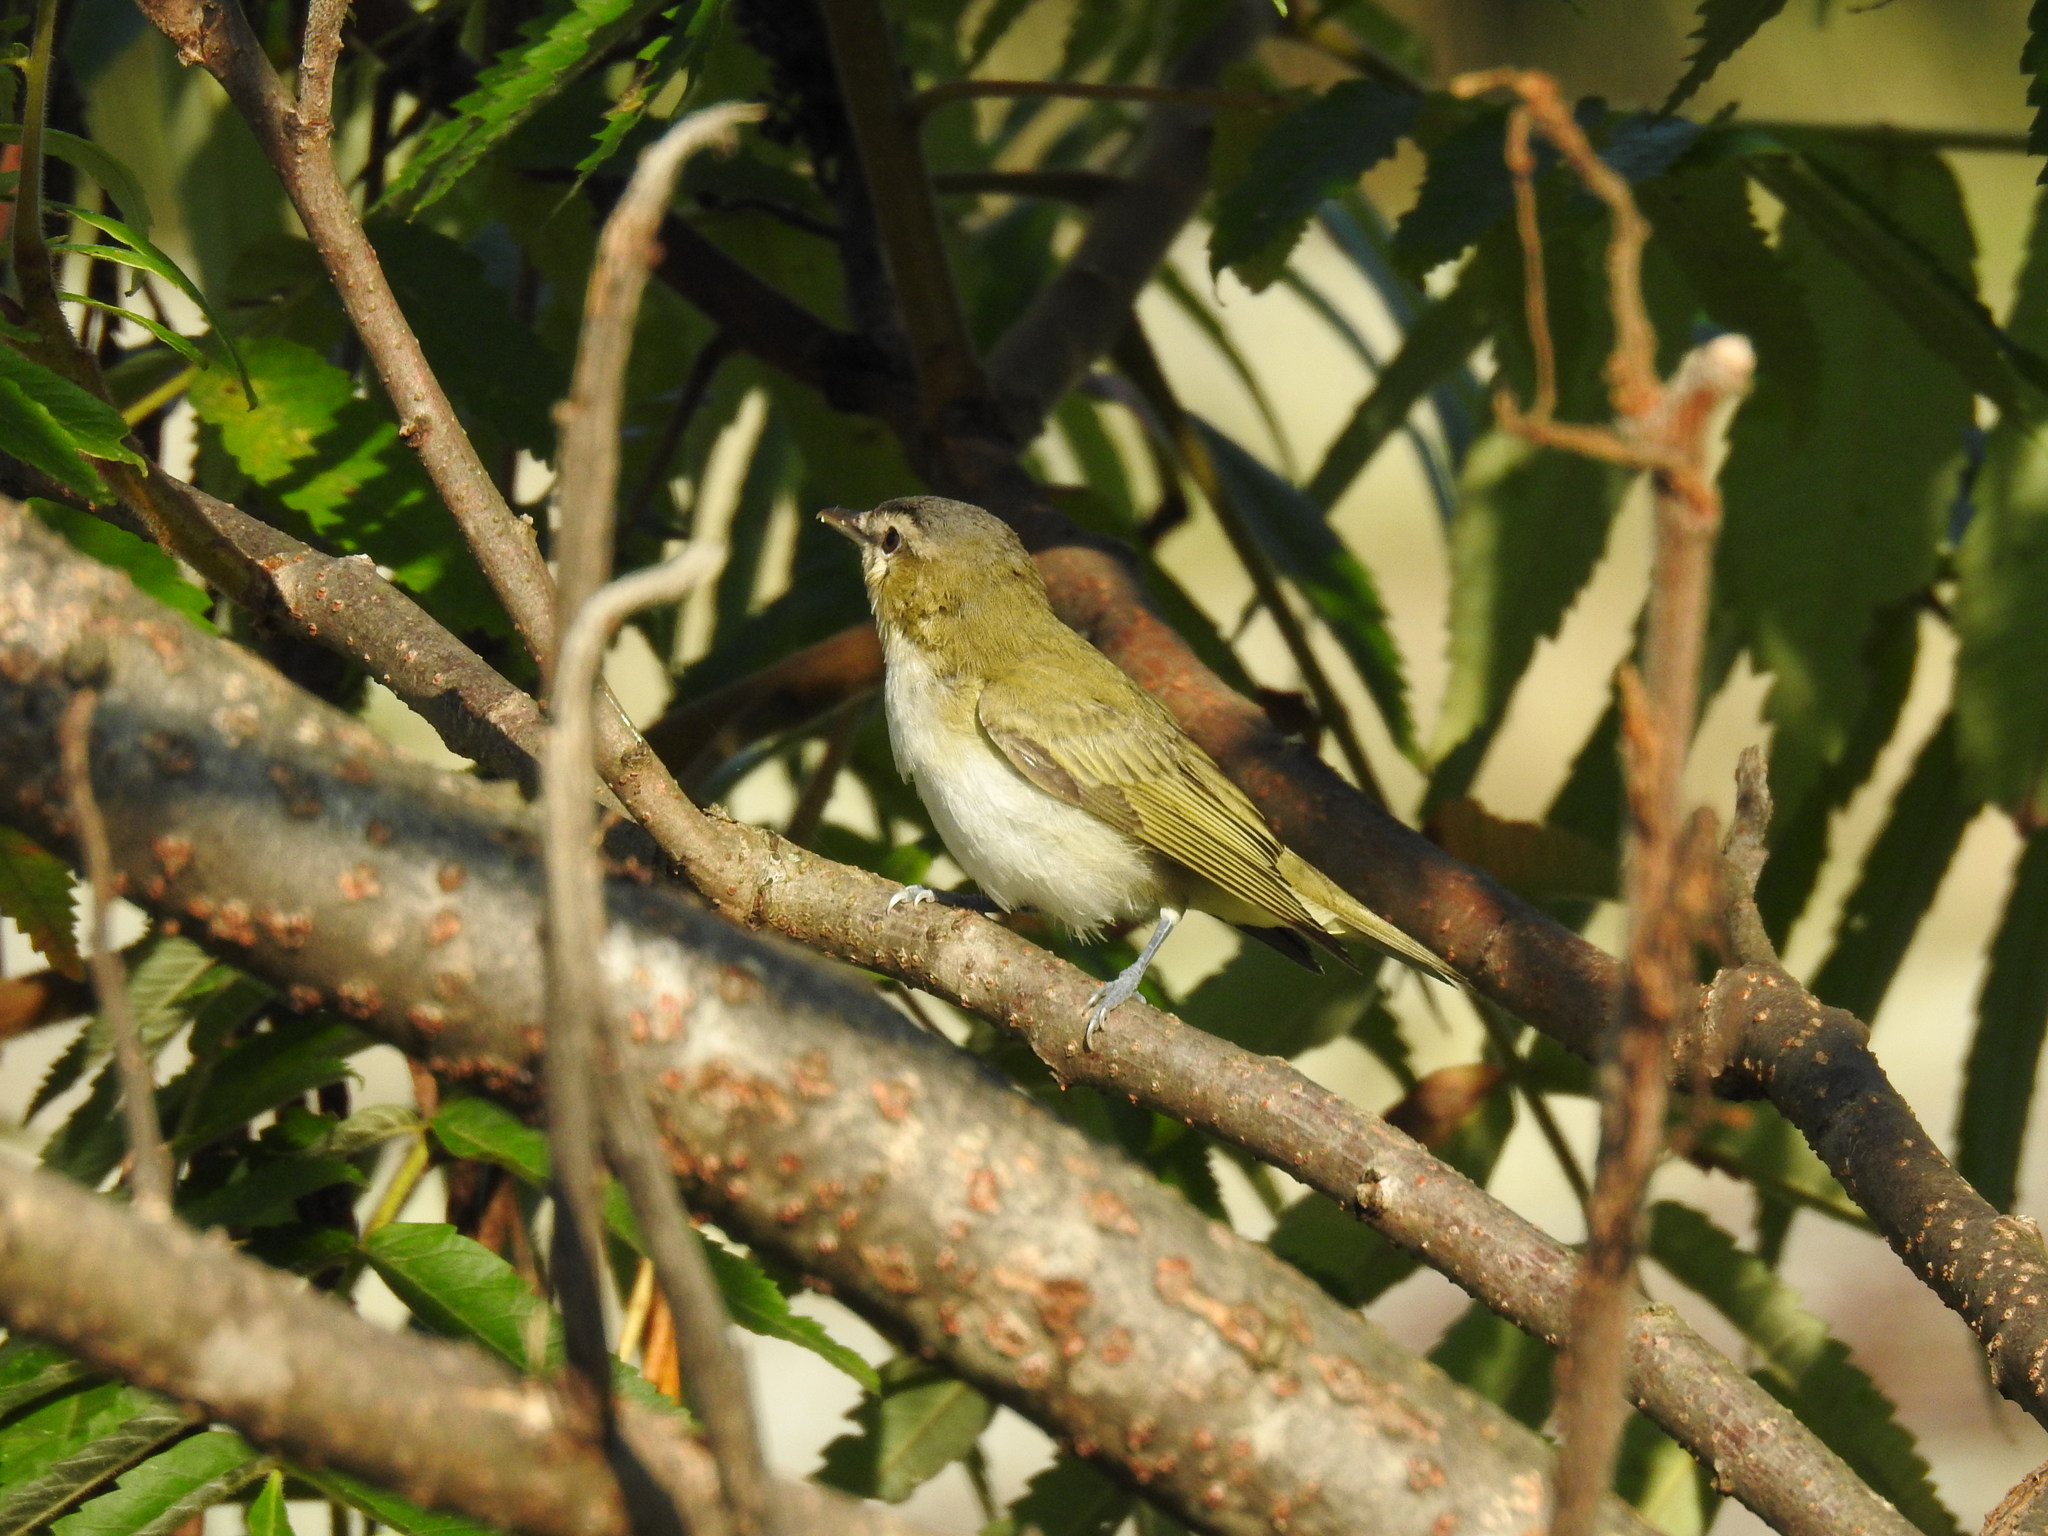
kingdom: Animalia
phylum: Chordata
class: Aves
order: Passeriformes
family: Vireonidae
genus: Vireo
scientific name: Vireo olivaceus
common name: Red-eyed vireo
